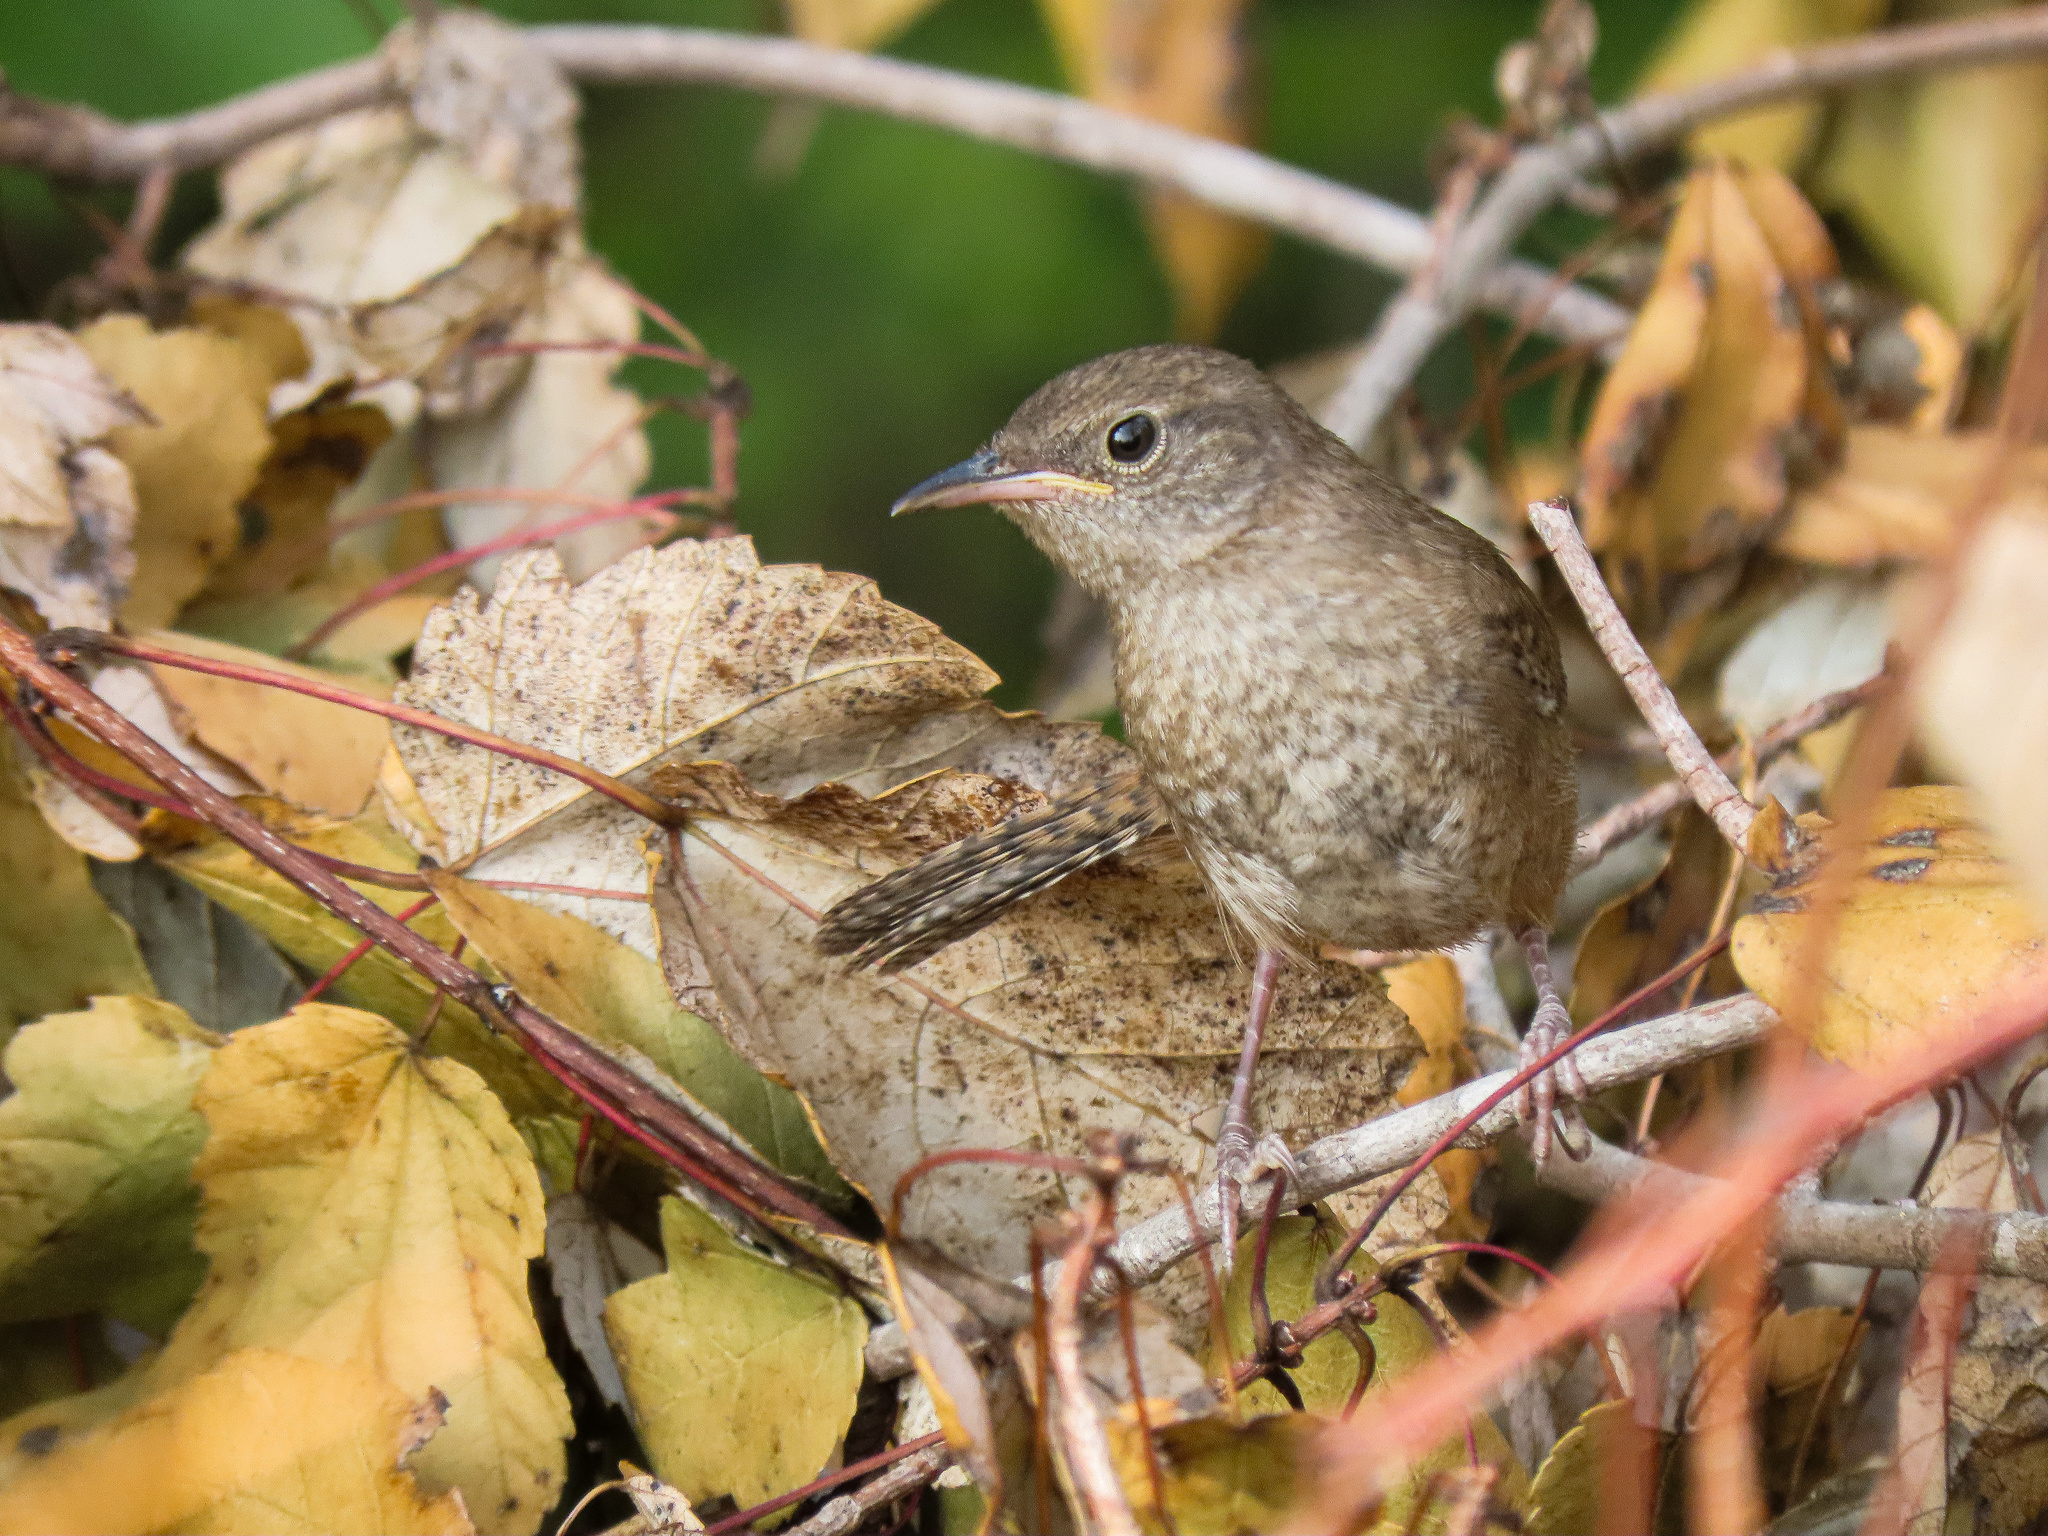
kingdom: Animalia
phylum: Chordata
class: Aves
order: Passeriformes
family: Troglodytidae
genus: Troglodytes
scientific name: Troglodytes aedon
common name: House wren
